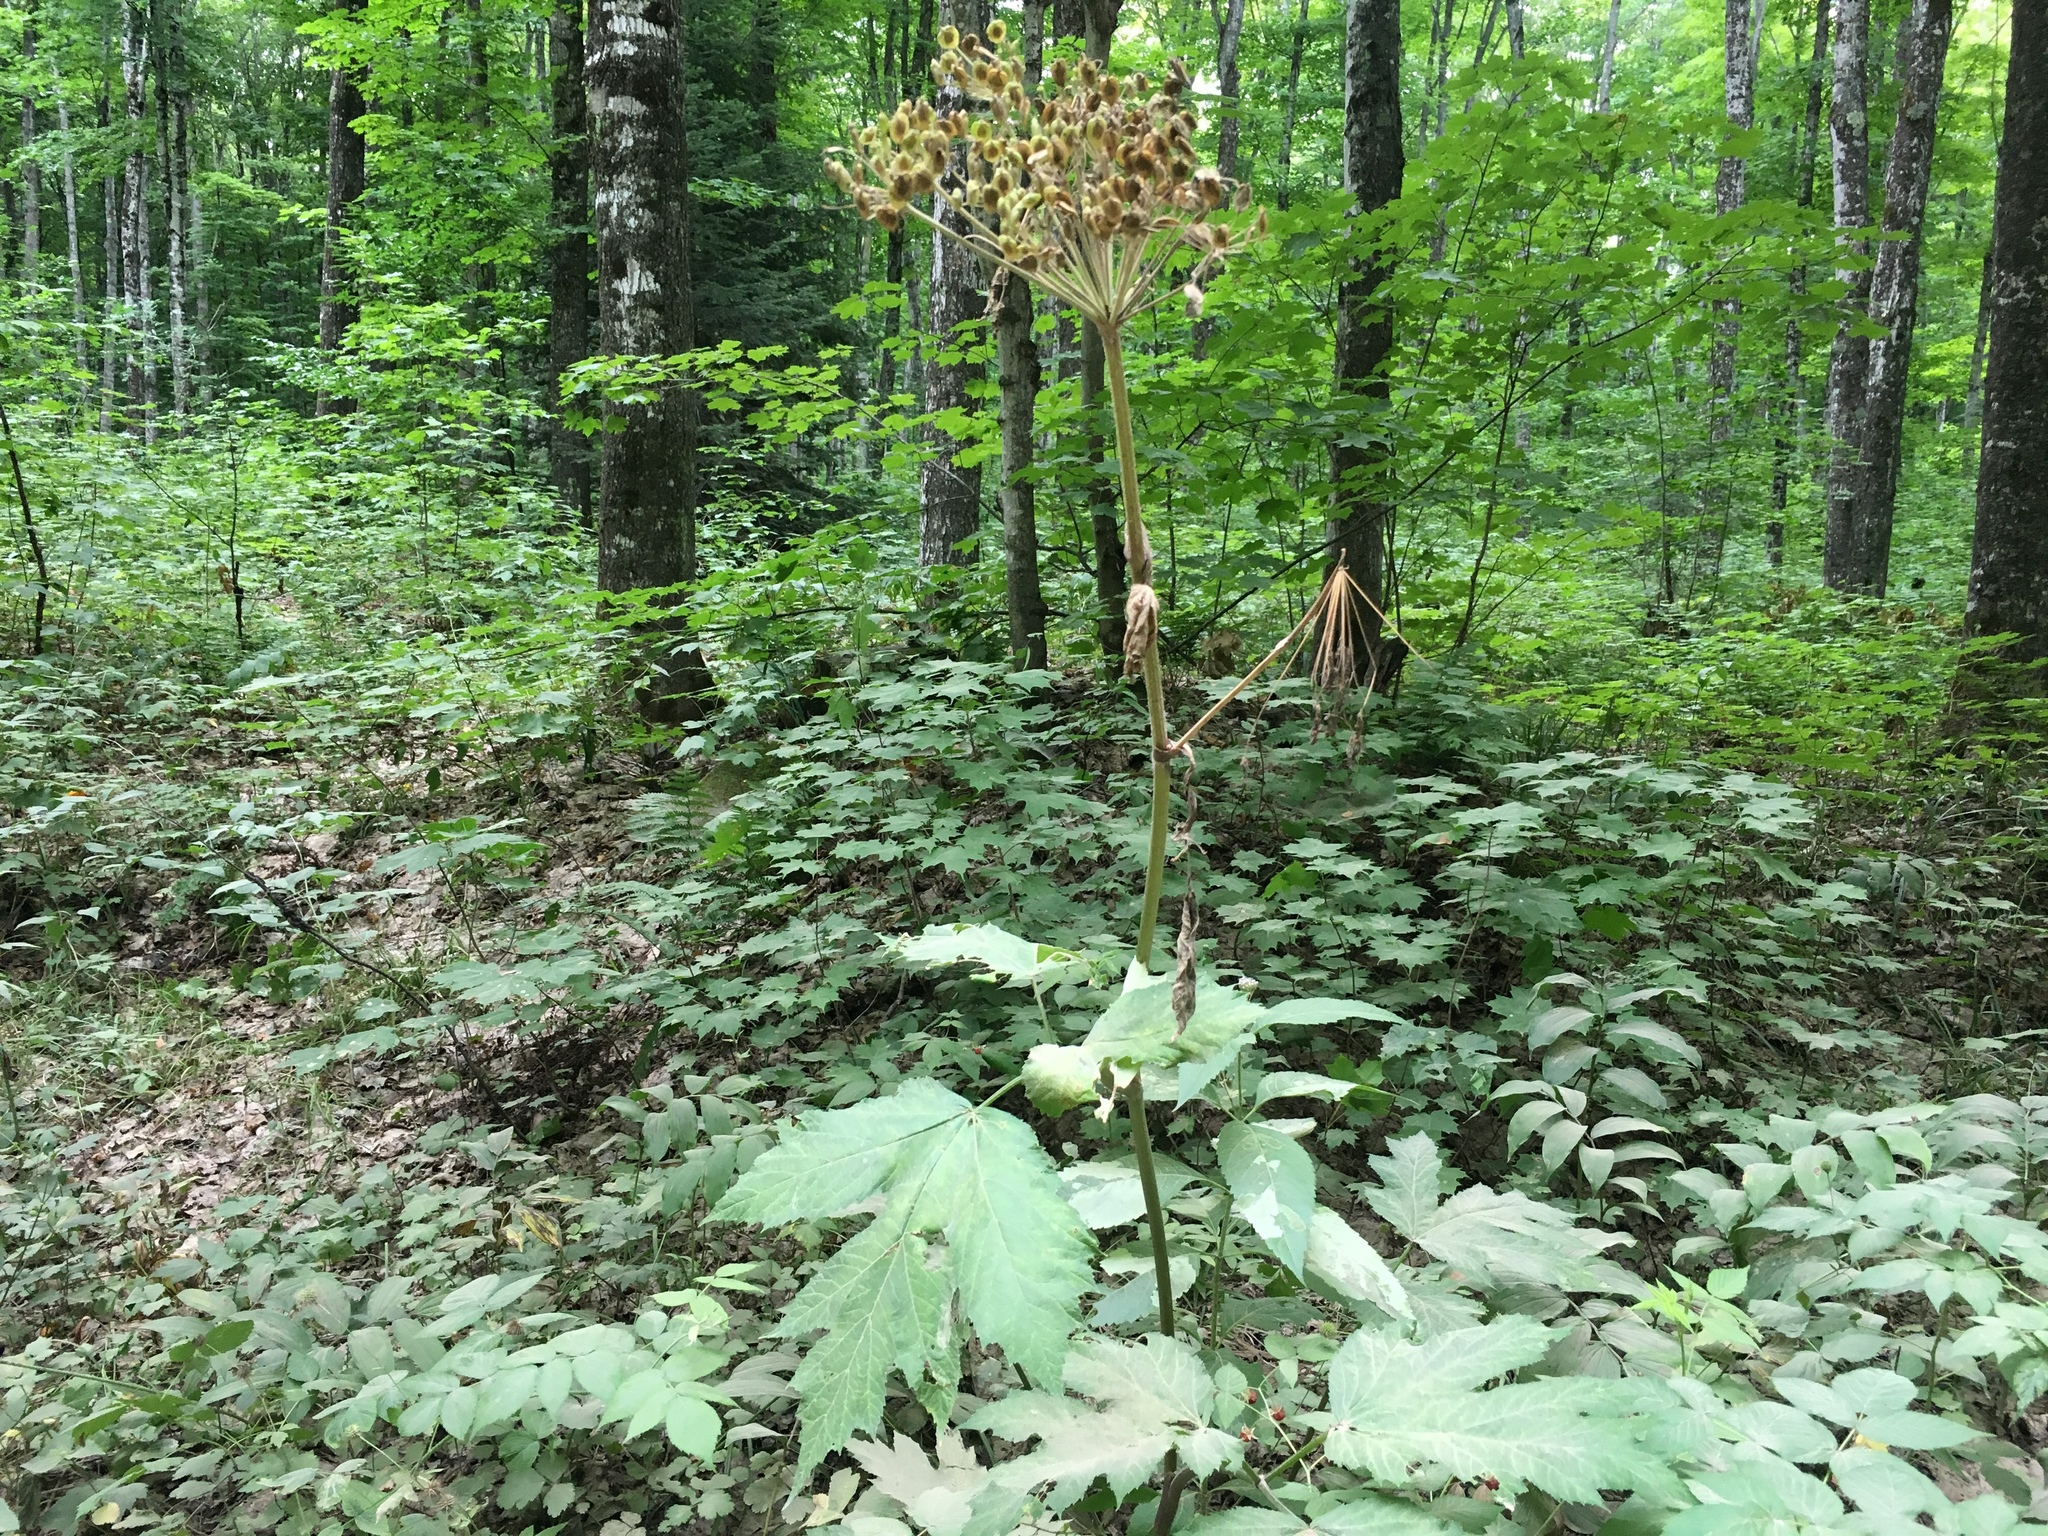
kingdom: Plantae
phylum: Tracheophyta
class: Magnoliopsida
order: Apiales
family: Apiaceae
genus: Heracleum
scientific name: Heracleum maximum
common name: American cow parsnip
